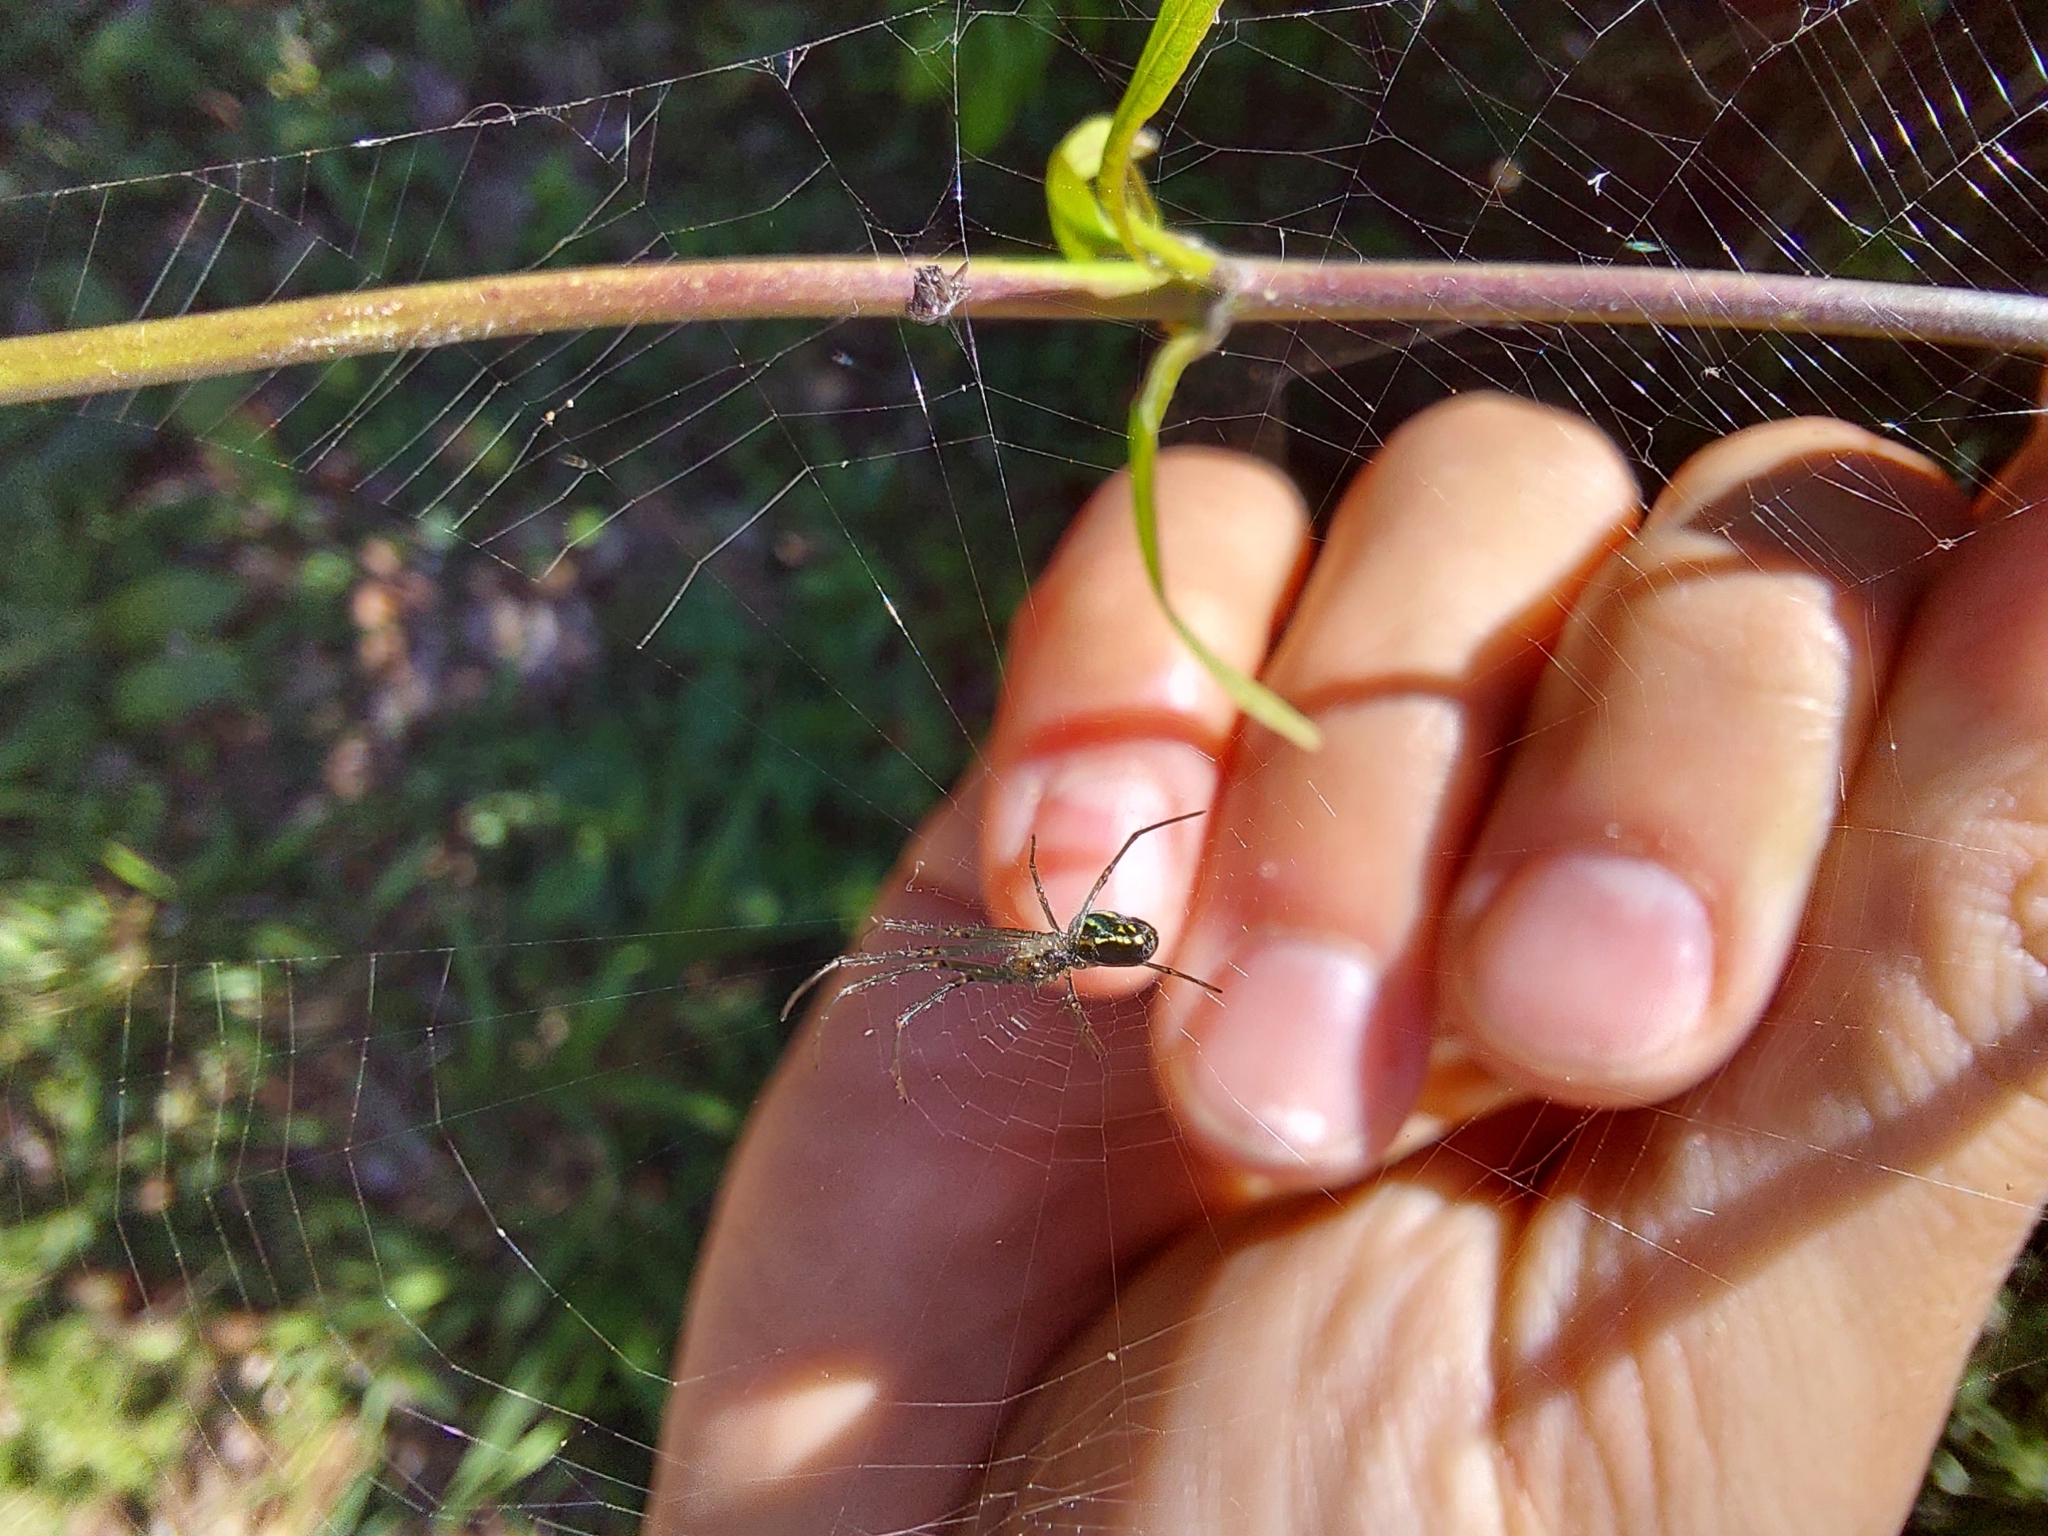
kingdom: Animalia
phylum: Arthropoda
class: Arachnida
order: Araneae
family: Tetragnathidae
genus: Leucauge
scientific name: Leucauge volupis
